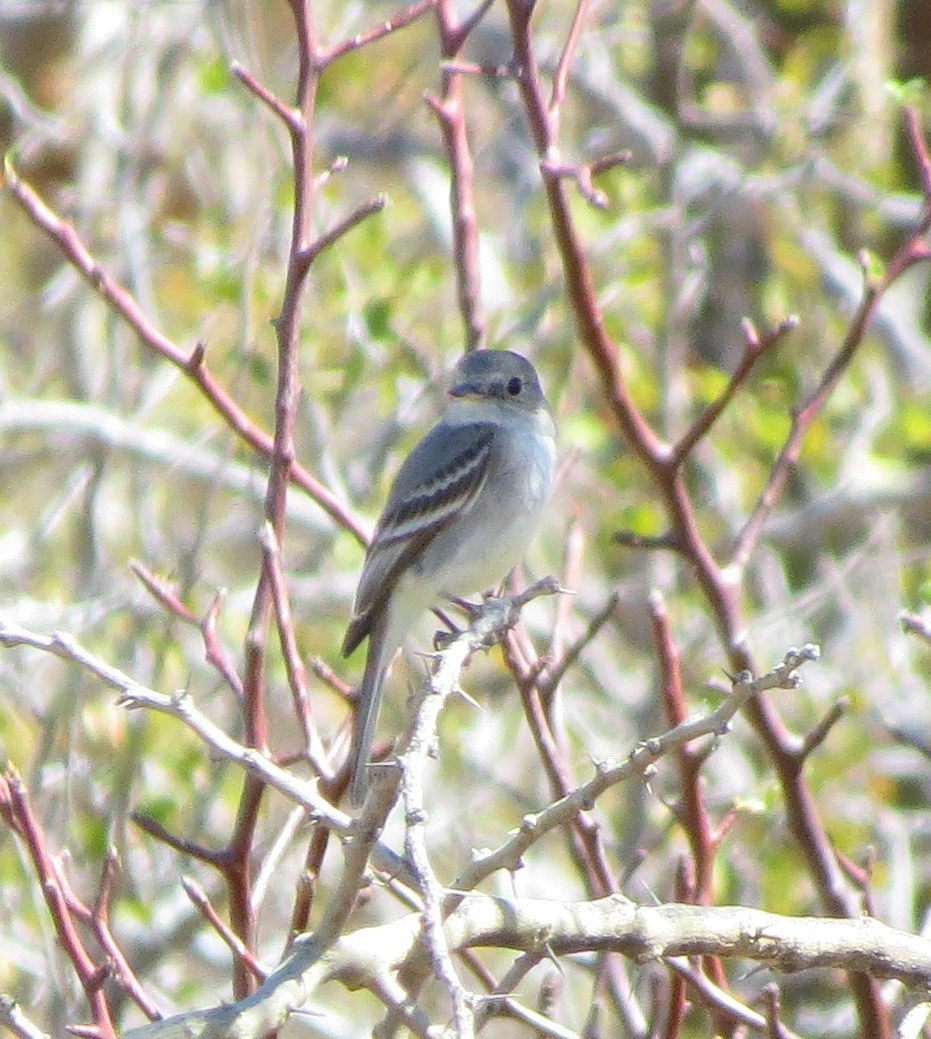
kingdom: Animalia
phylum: Chordata
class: Aves
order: Passeriformes
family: Tyrannidae
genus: Empidonax
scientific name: Empidonax wrightii
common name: Gray flycatcher
